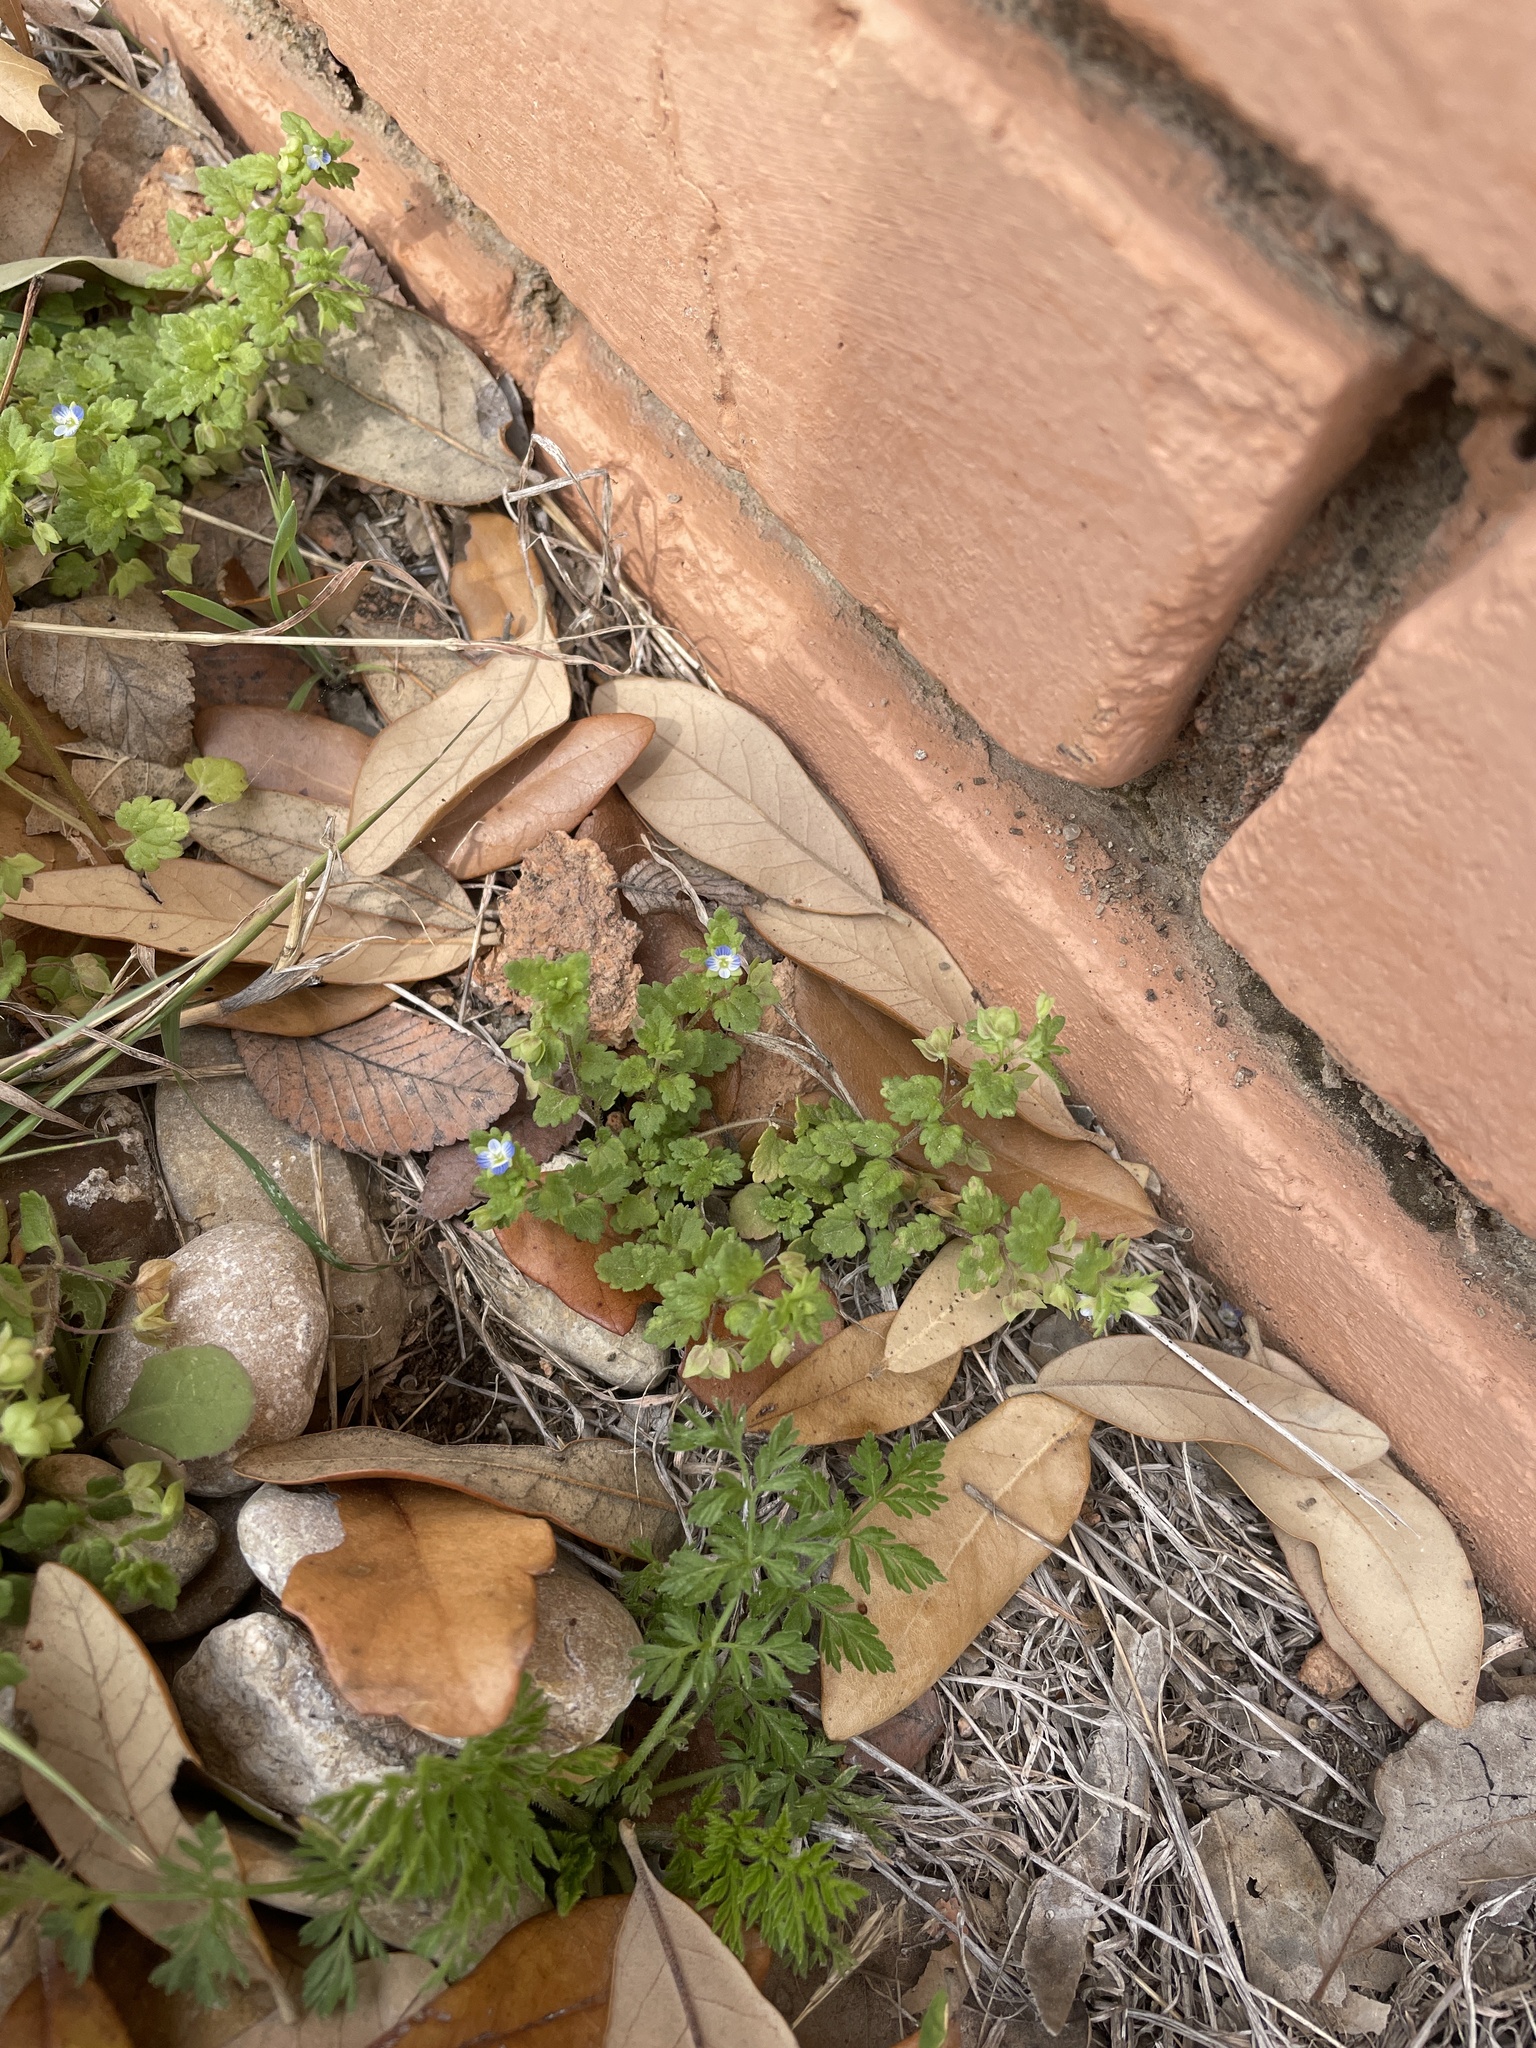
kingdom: Plantae
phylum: Tracheophyta
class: Magnoliopsida
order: Lamiales
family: Plantaginaceae
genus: Veronica
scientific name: Veronica polita
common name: Grey field-speedwell
